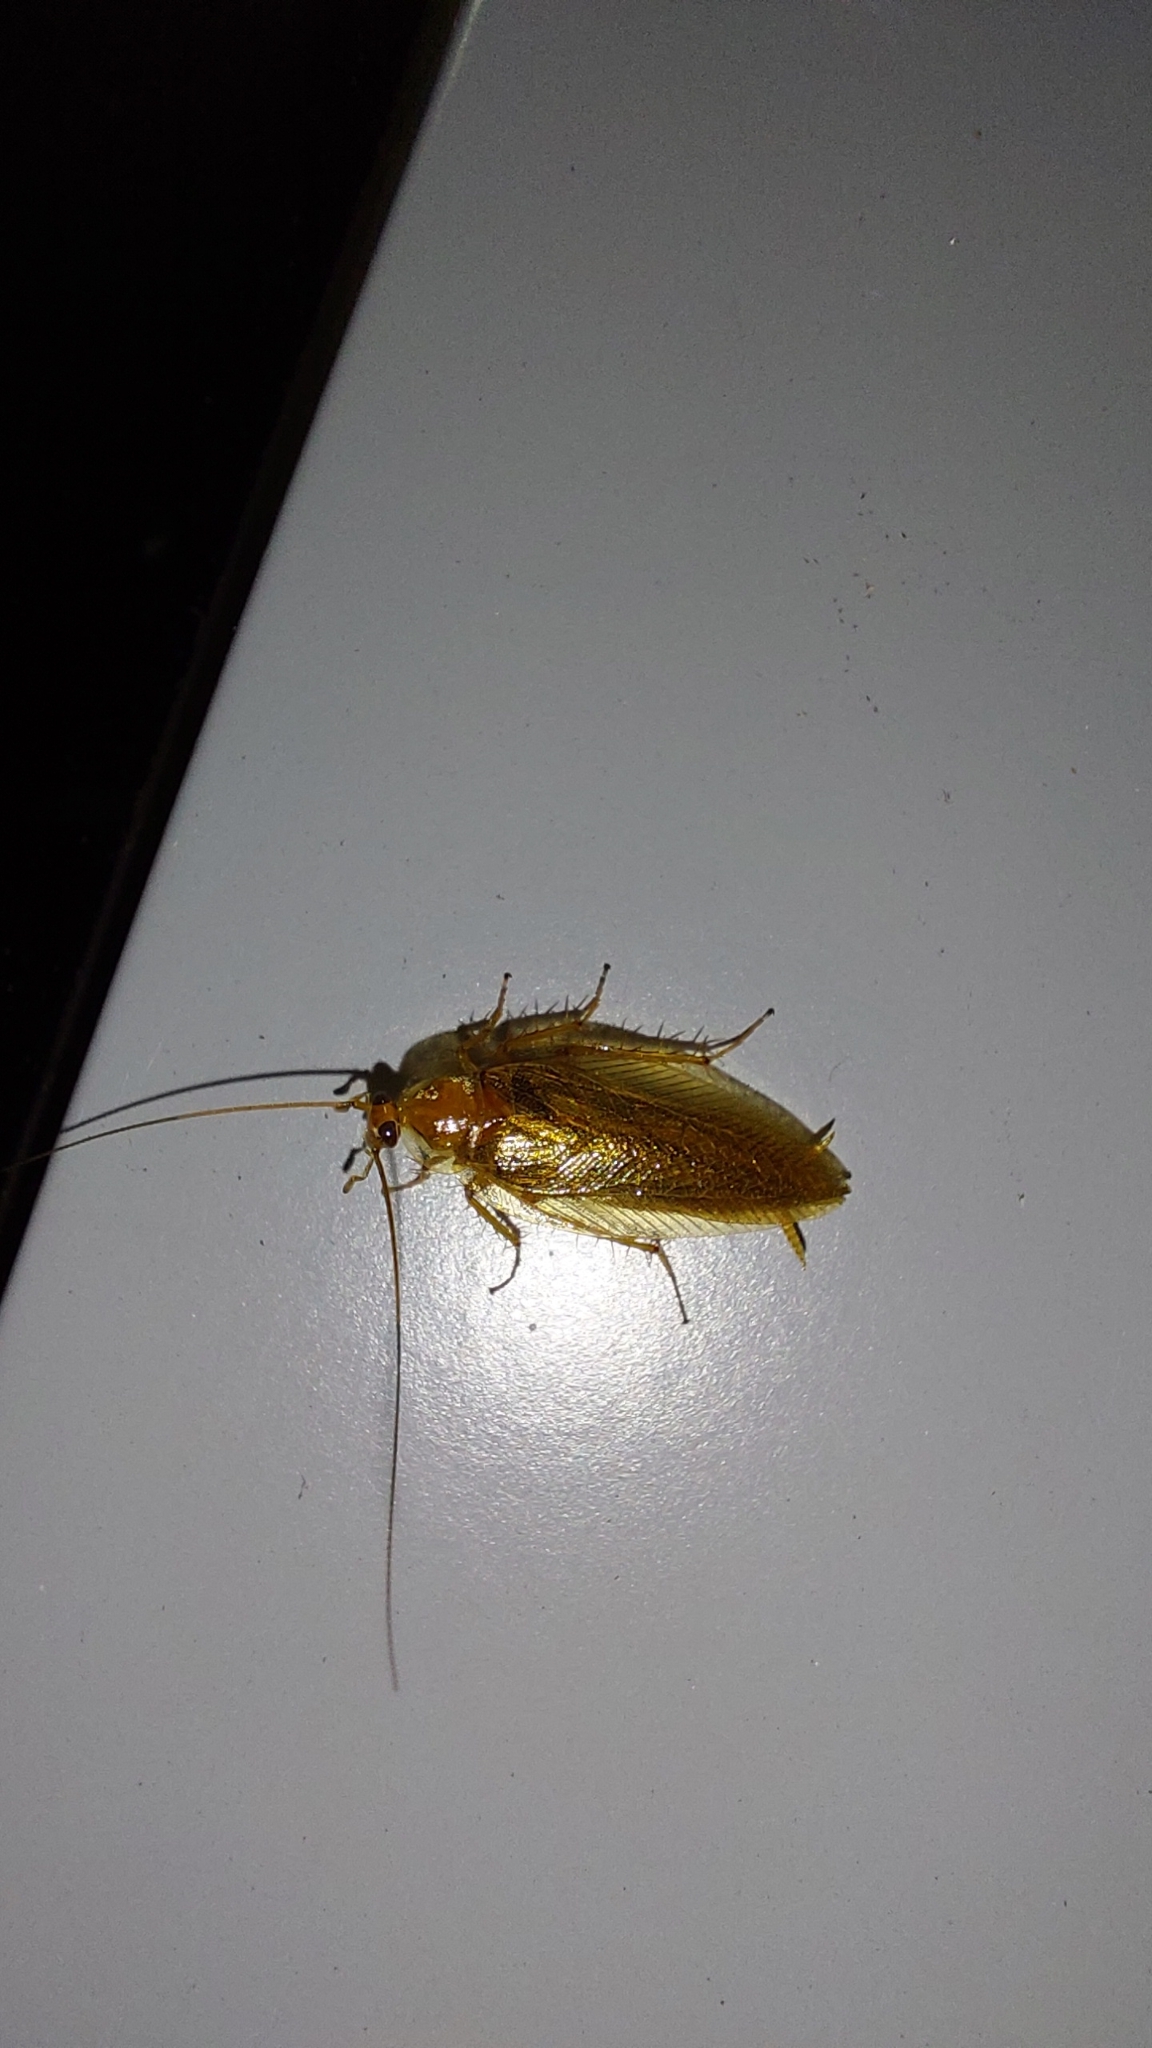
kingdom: Animalia
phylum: Arthropoda
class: Insecta
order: Blattodea
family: Ectobiidae
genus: Ectobius
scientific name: Ectobius vittiventris
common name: Garden cockroach
